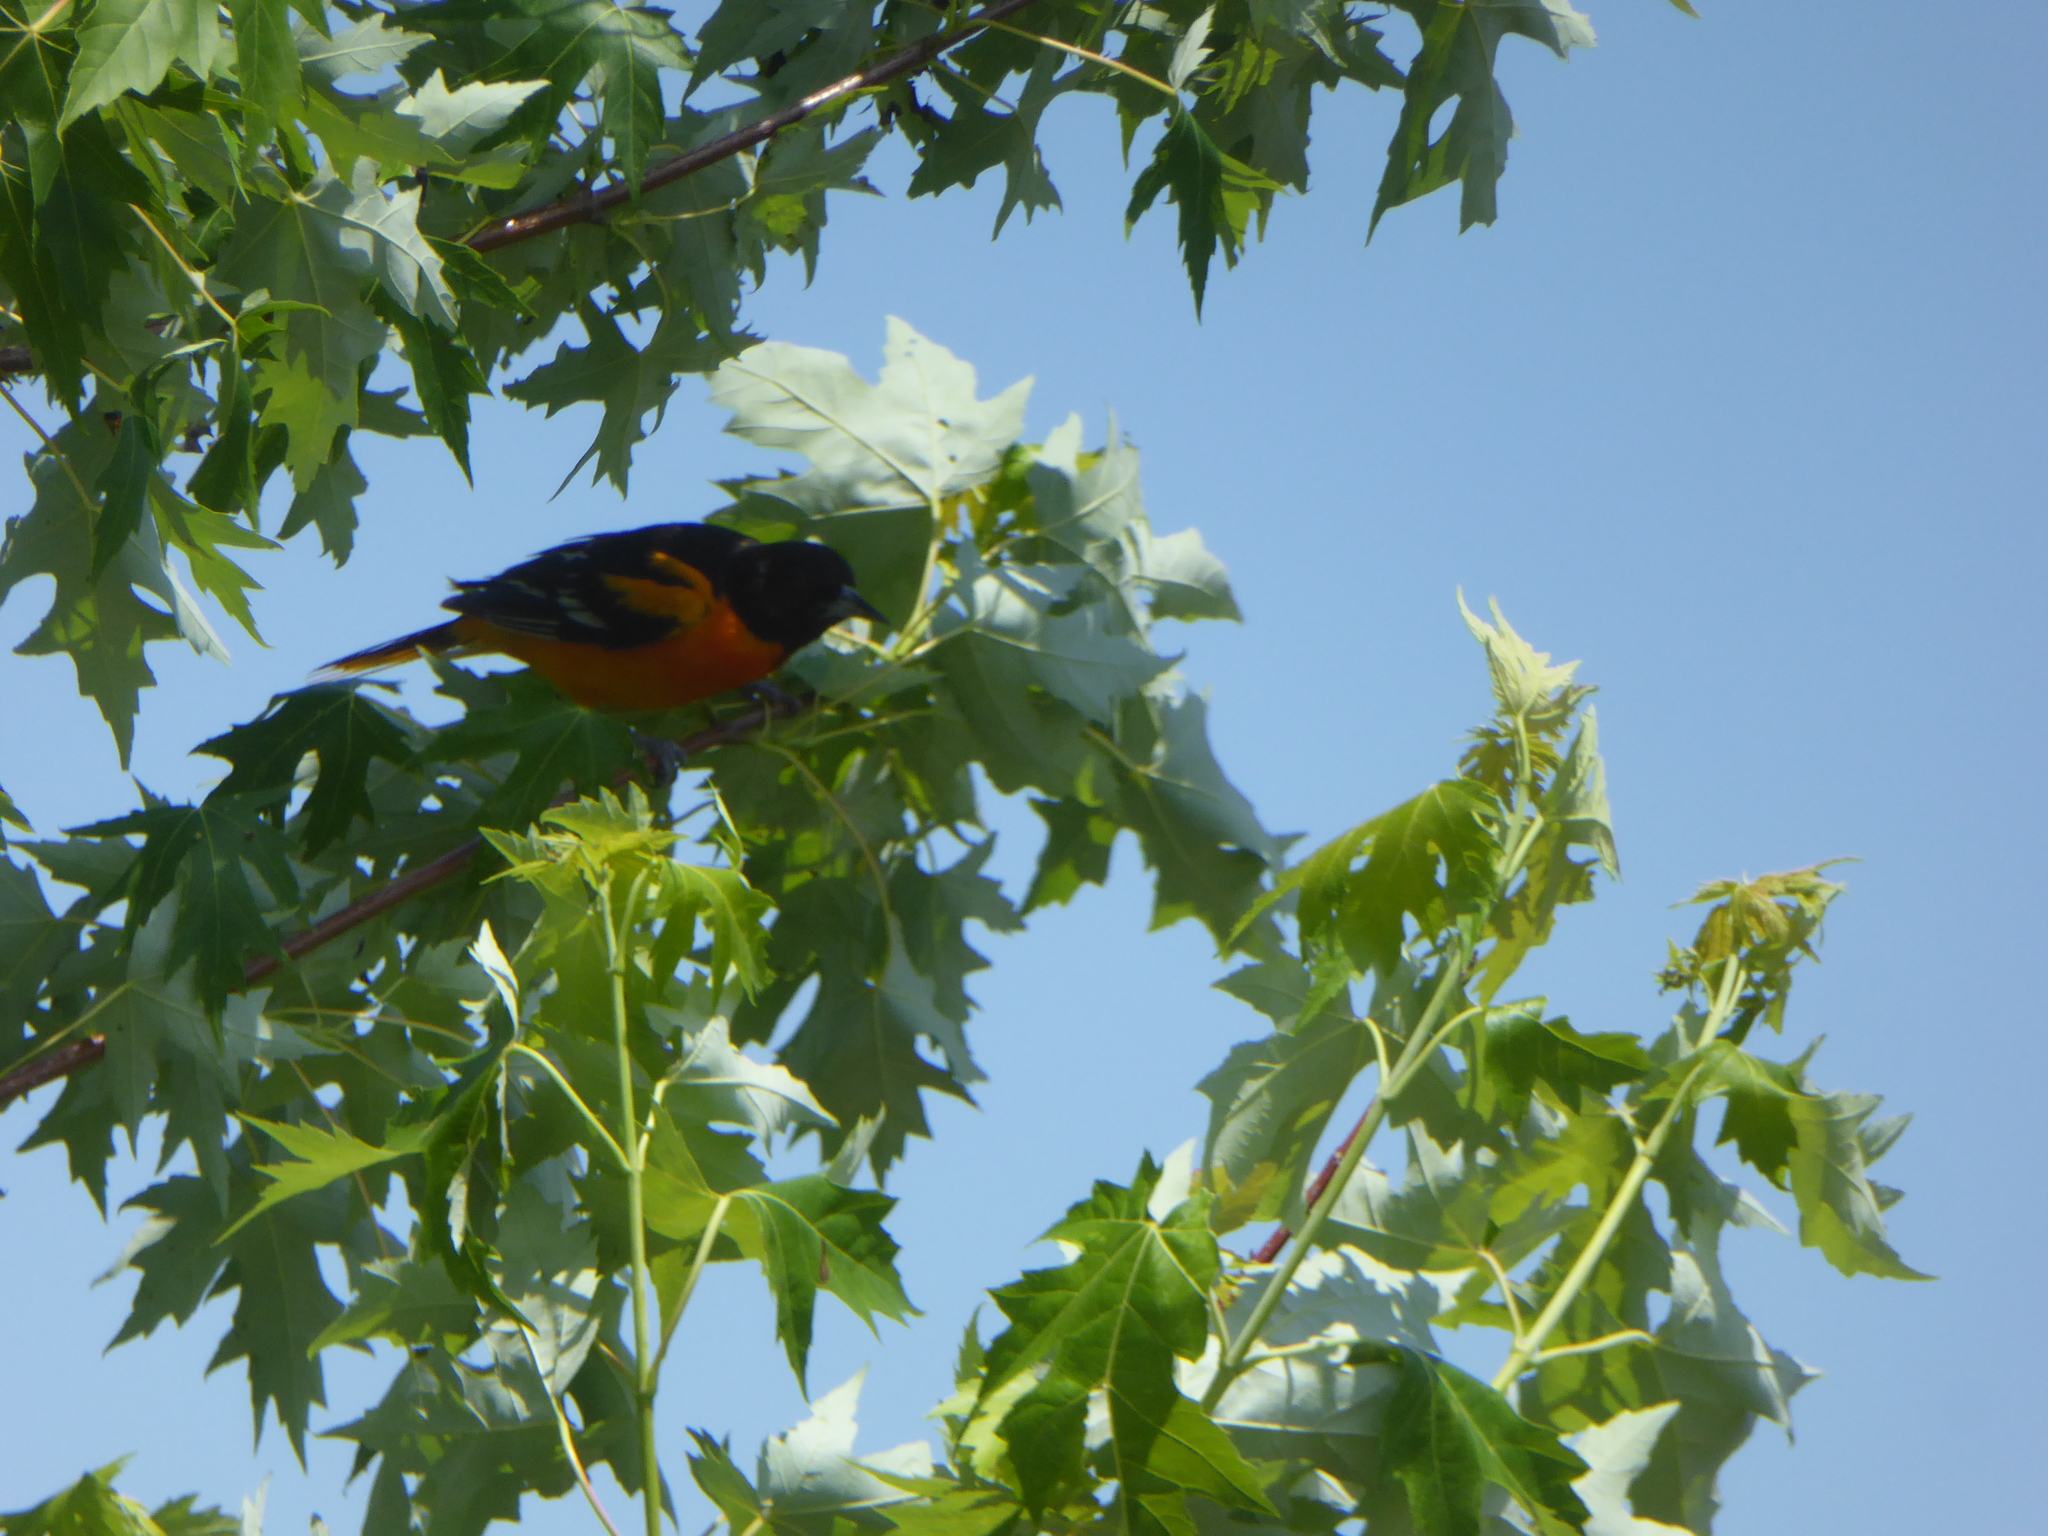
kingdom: Animalia
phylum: Chordata
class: Aves
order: Passeriformes
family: Icteridae
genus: Icterus
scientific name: Icterus galbula
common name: Baltimore oriole
